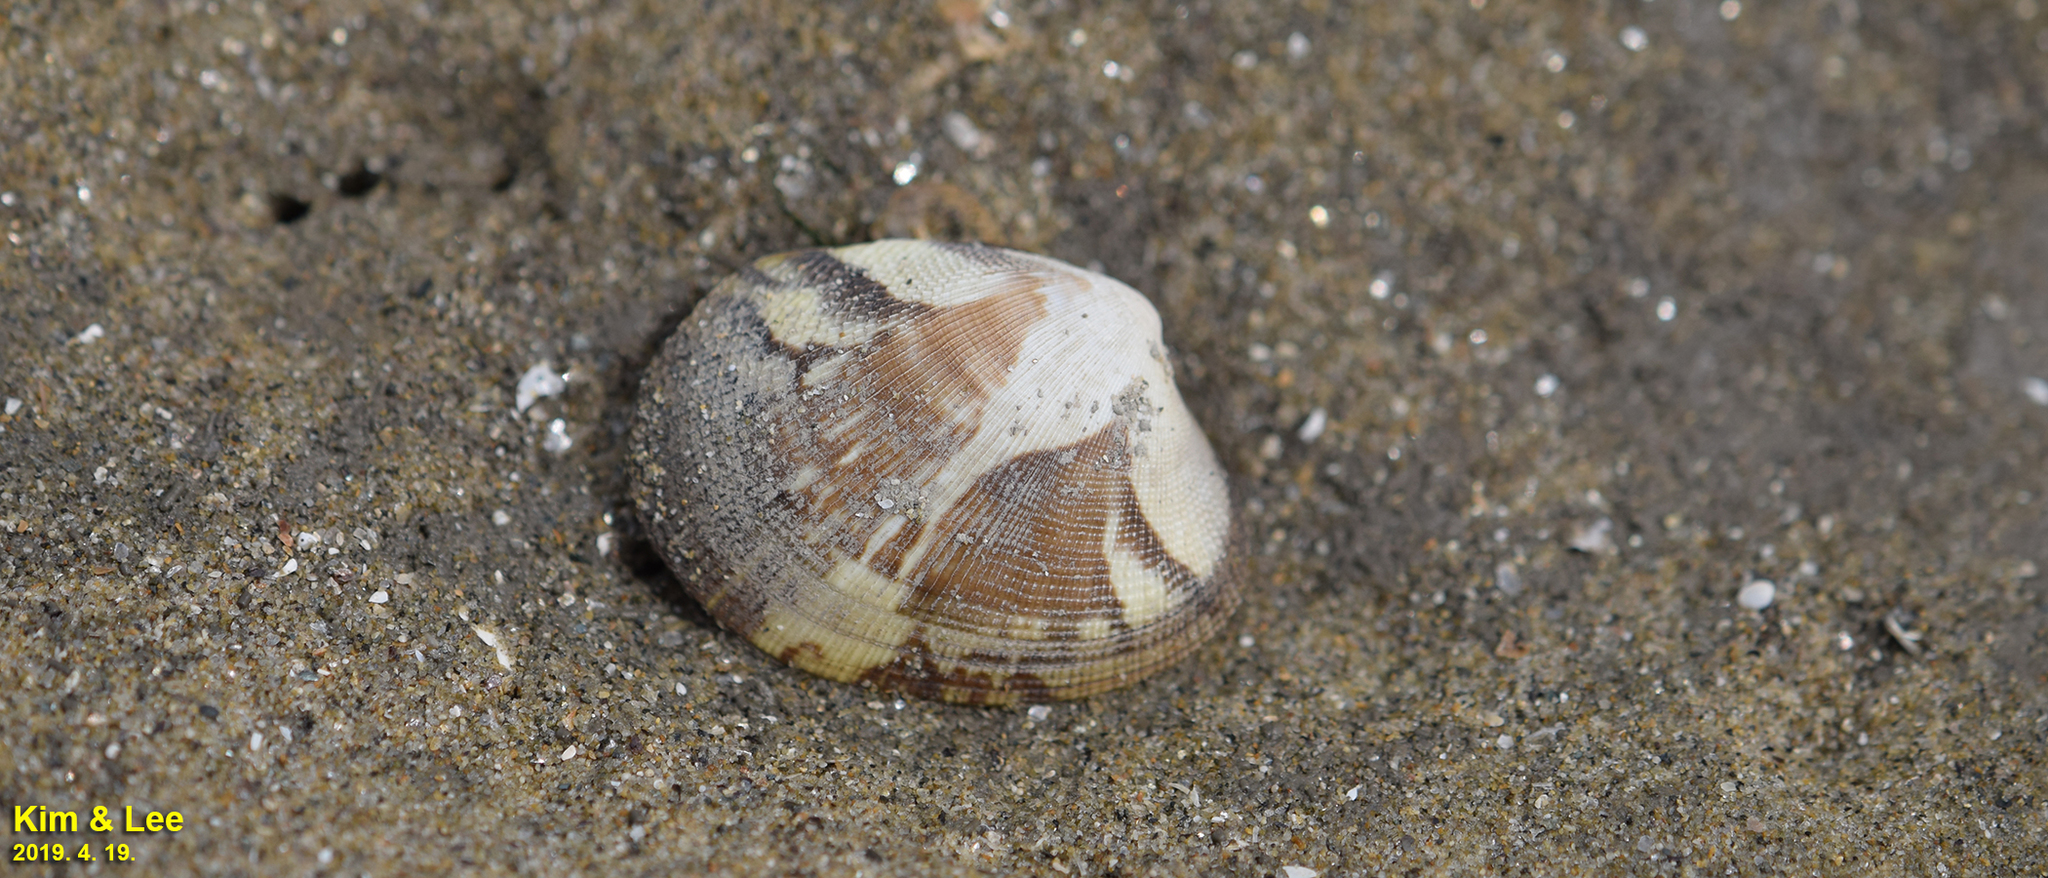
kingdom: Animalia
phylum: Mollusca
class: Bivalvia
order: Venerida
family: Veneridae
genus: Ruditapes
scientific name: Ruditapes philippinarum
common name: Manila clam
